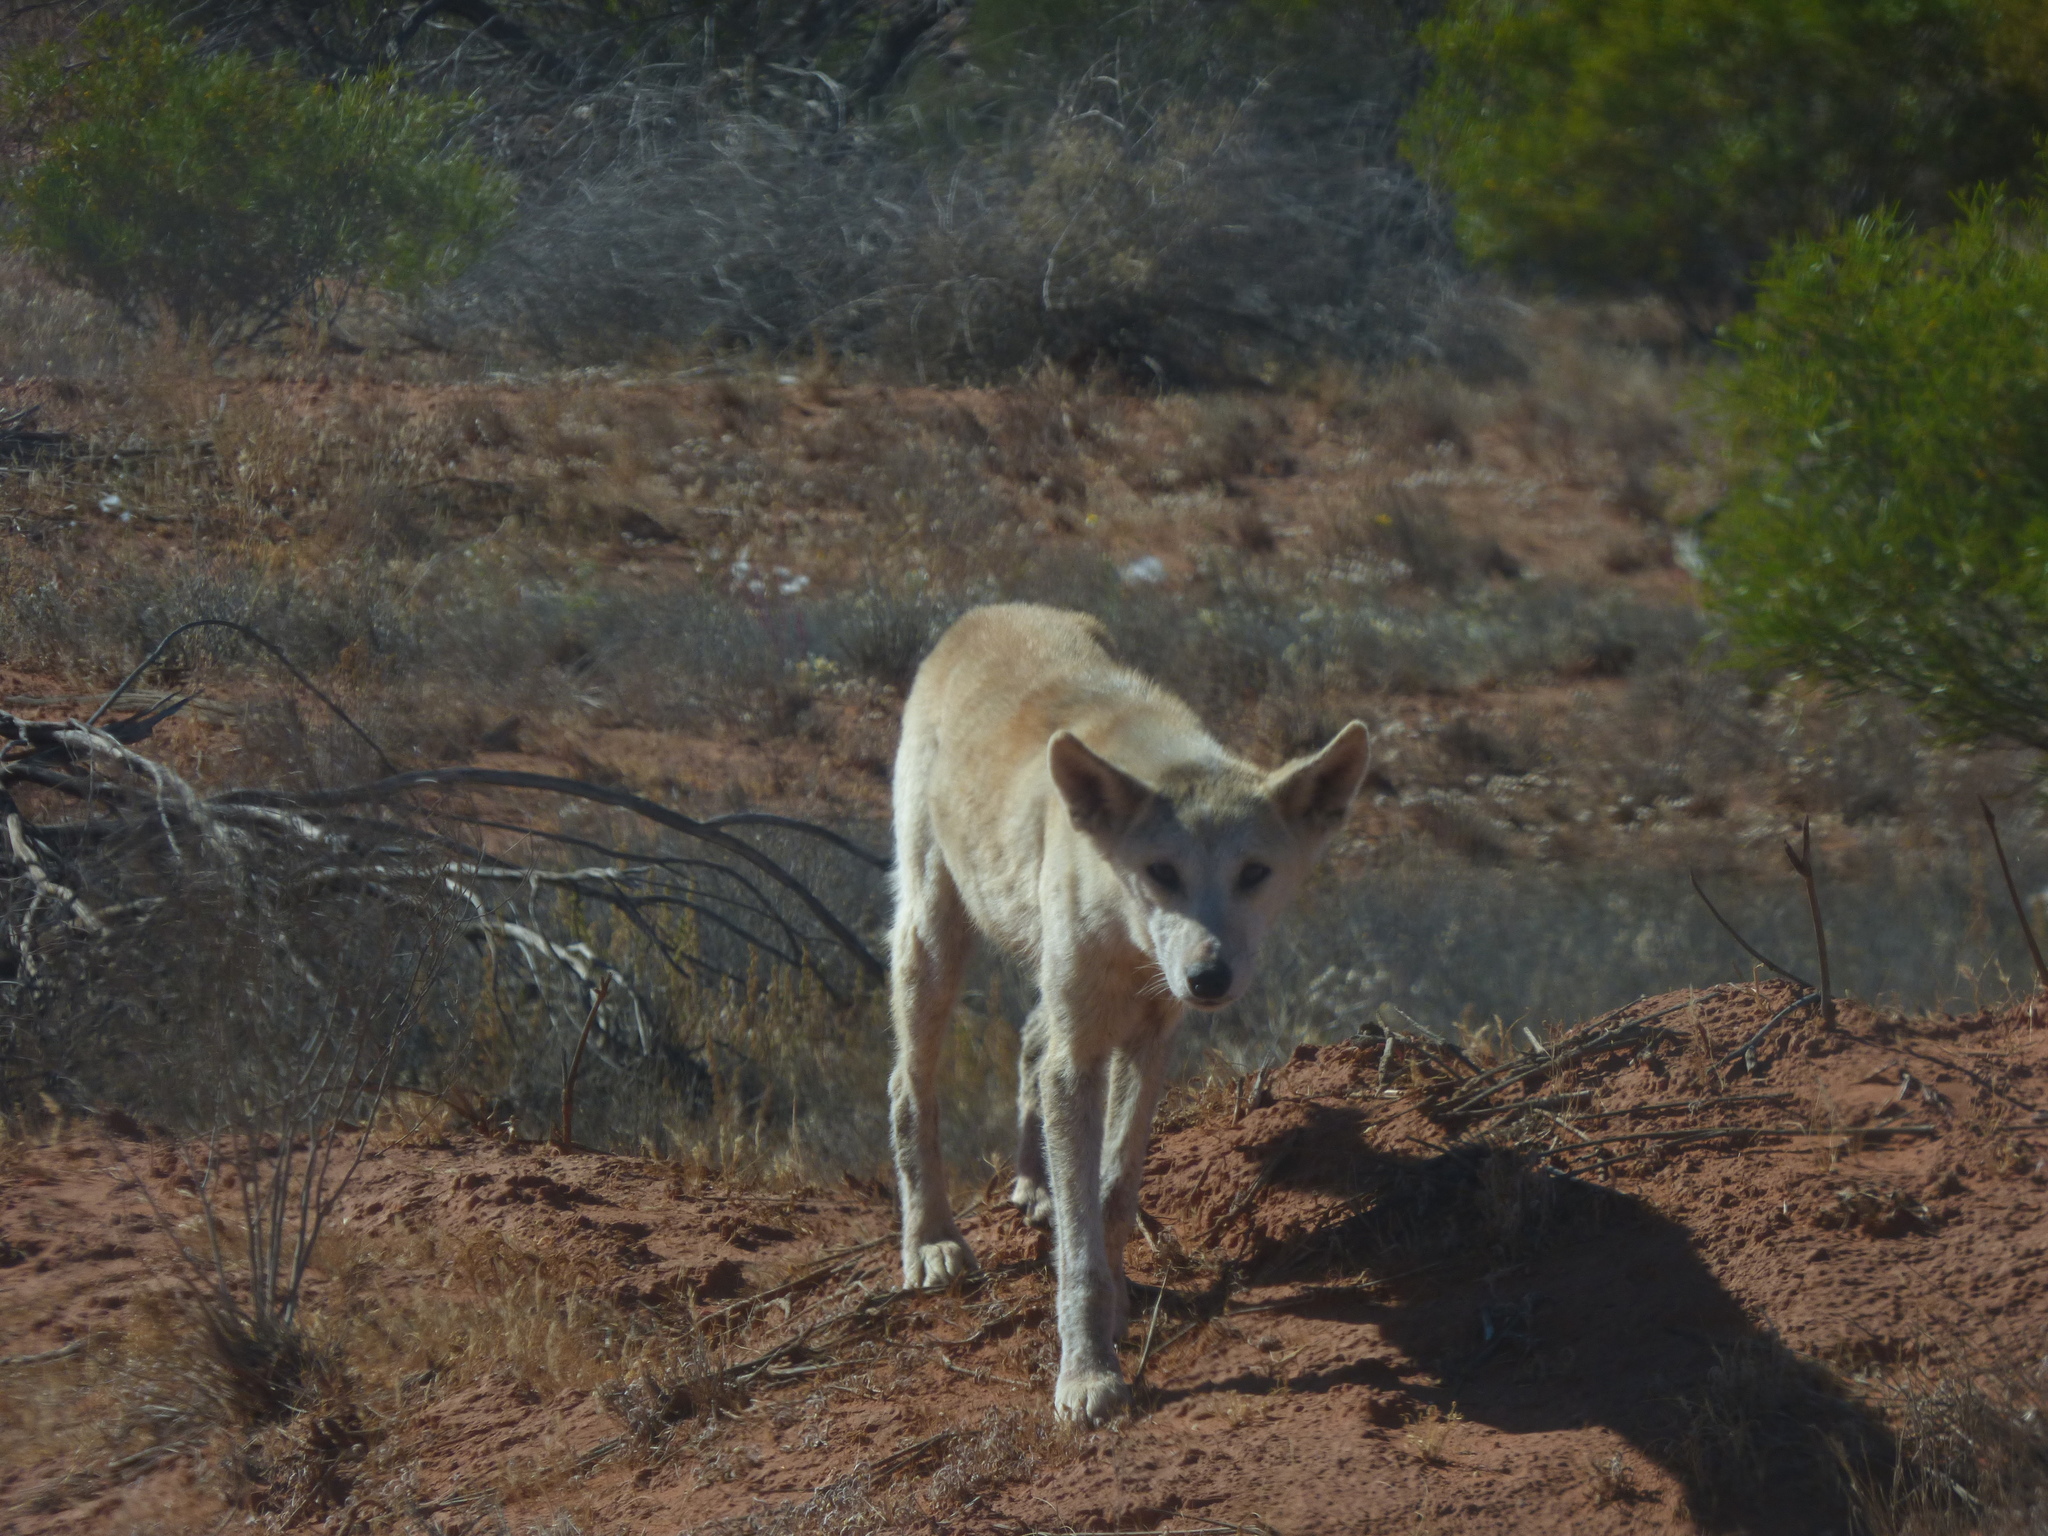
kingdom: Animalia
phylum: Chordata
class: Mammalia
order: Carnivora
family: Canidae
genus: Canis
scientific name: Canis lupus
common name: Gray wolf
